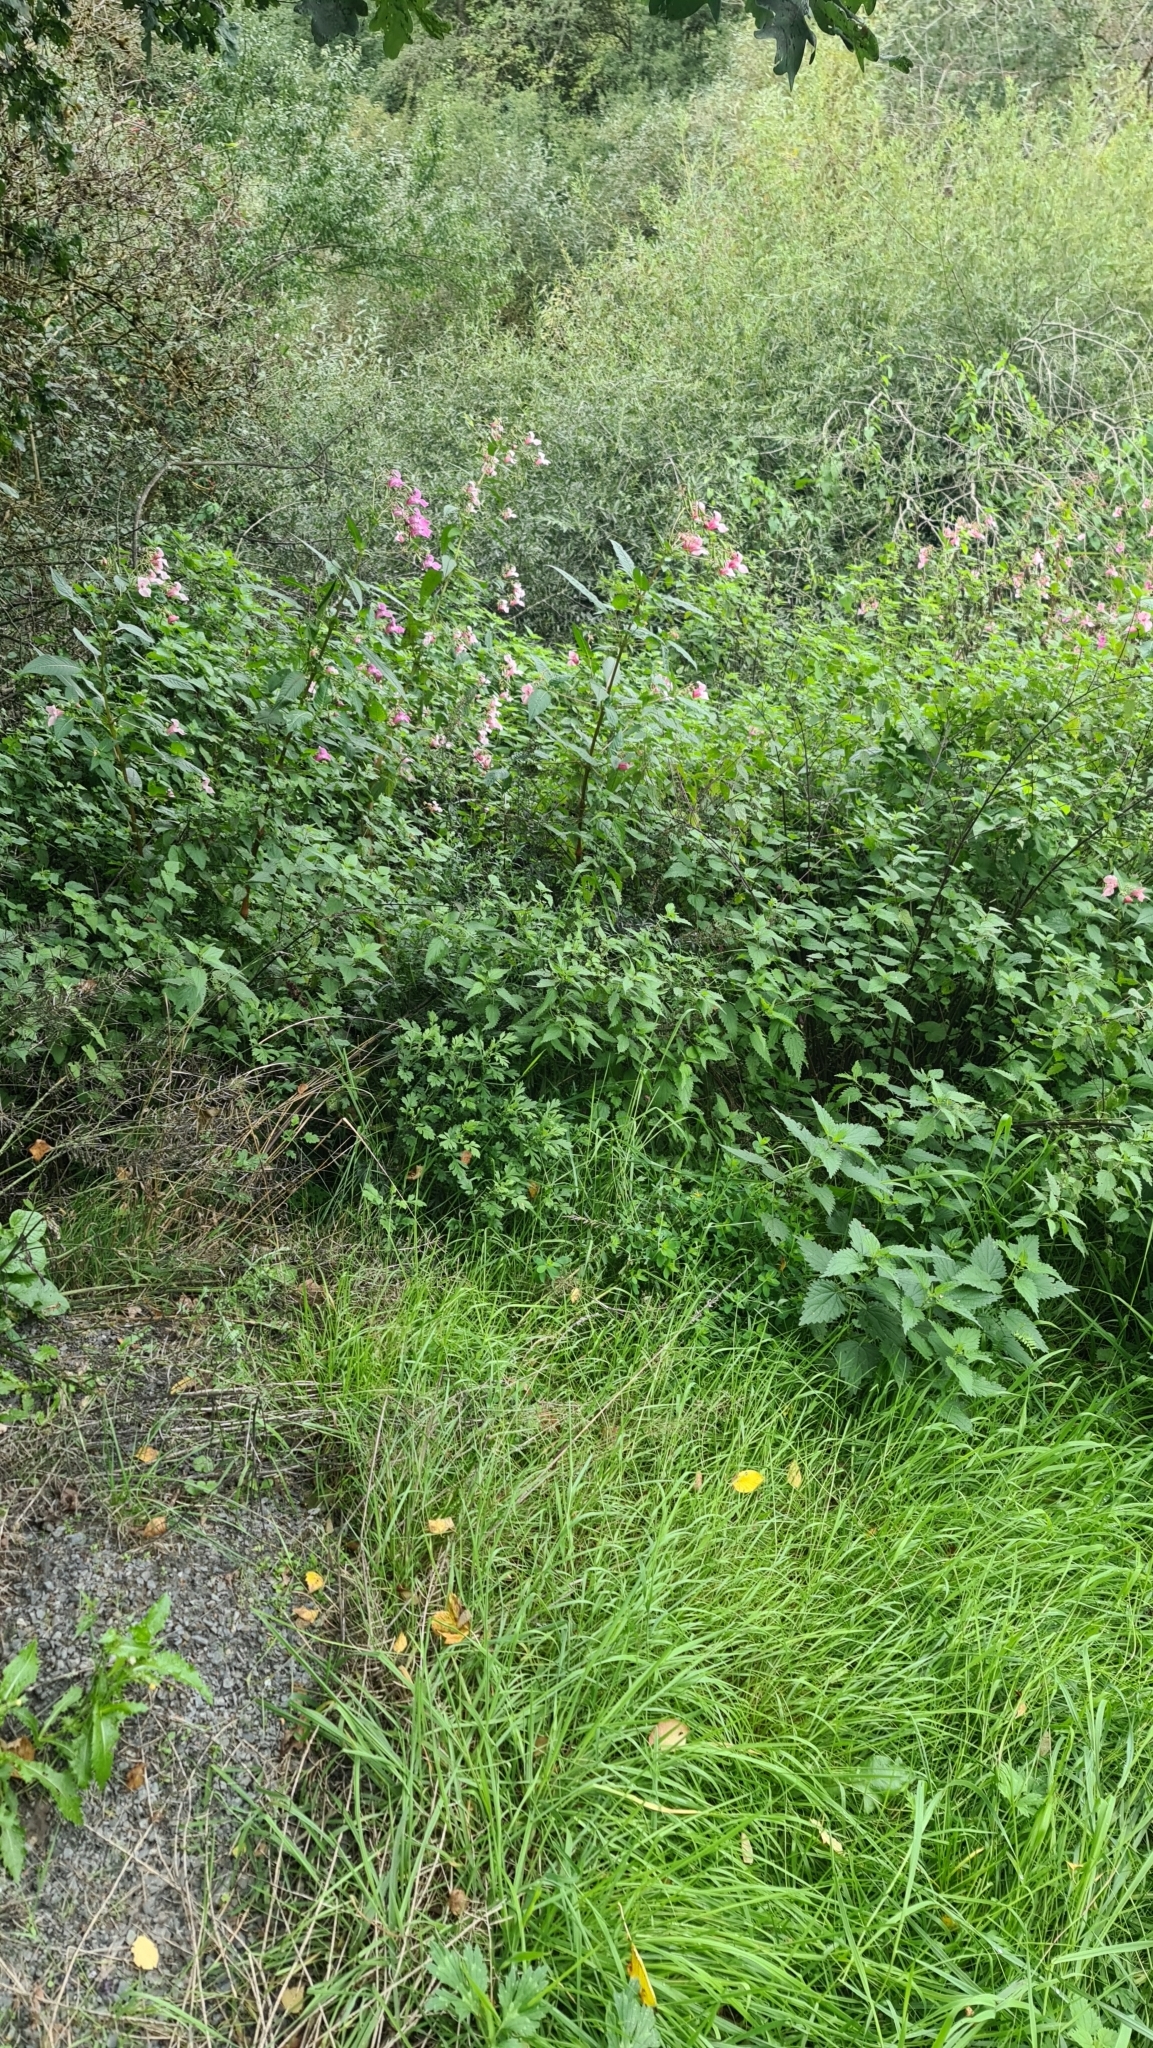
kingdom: Plantae
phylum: Tracheophyta
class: Magnoliopsida
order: Ericales
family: Balsaminaceae
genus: Impatiens
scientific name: Impatiens glandulifera
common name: Himalayan balsam
